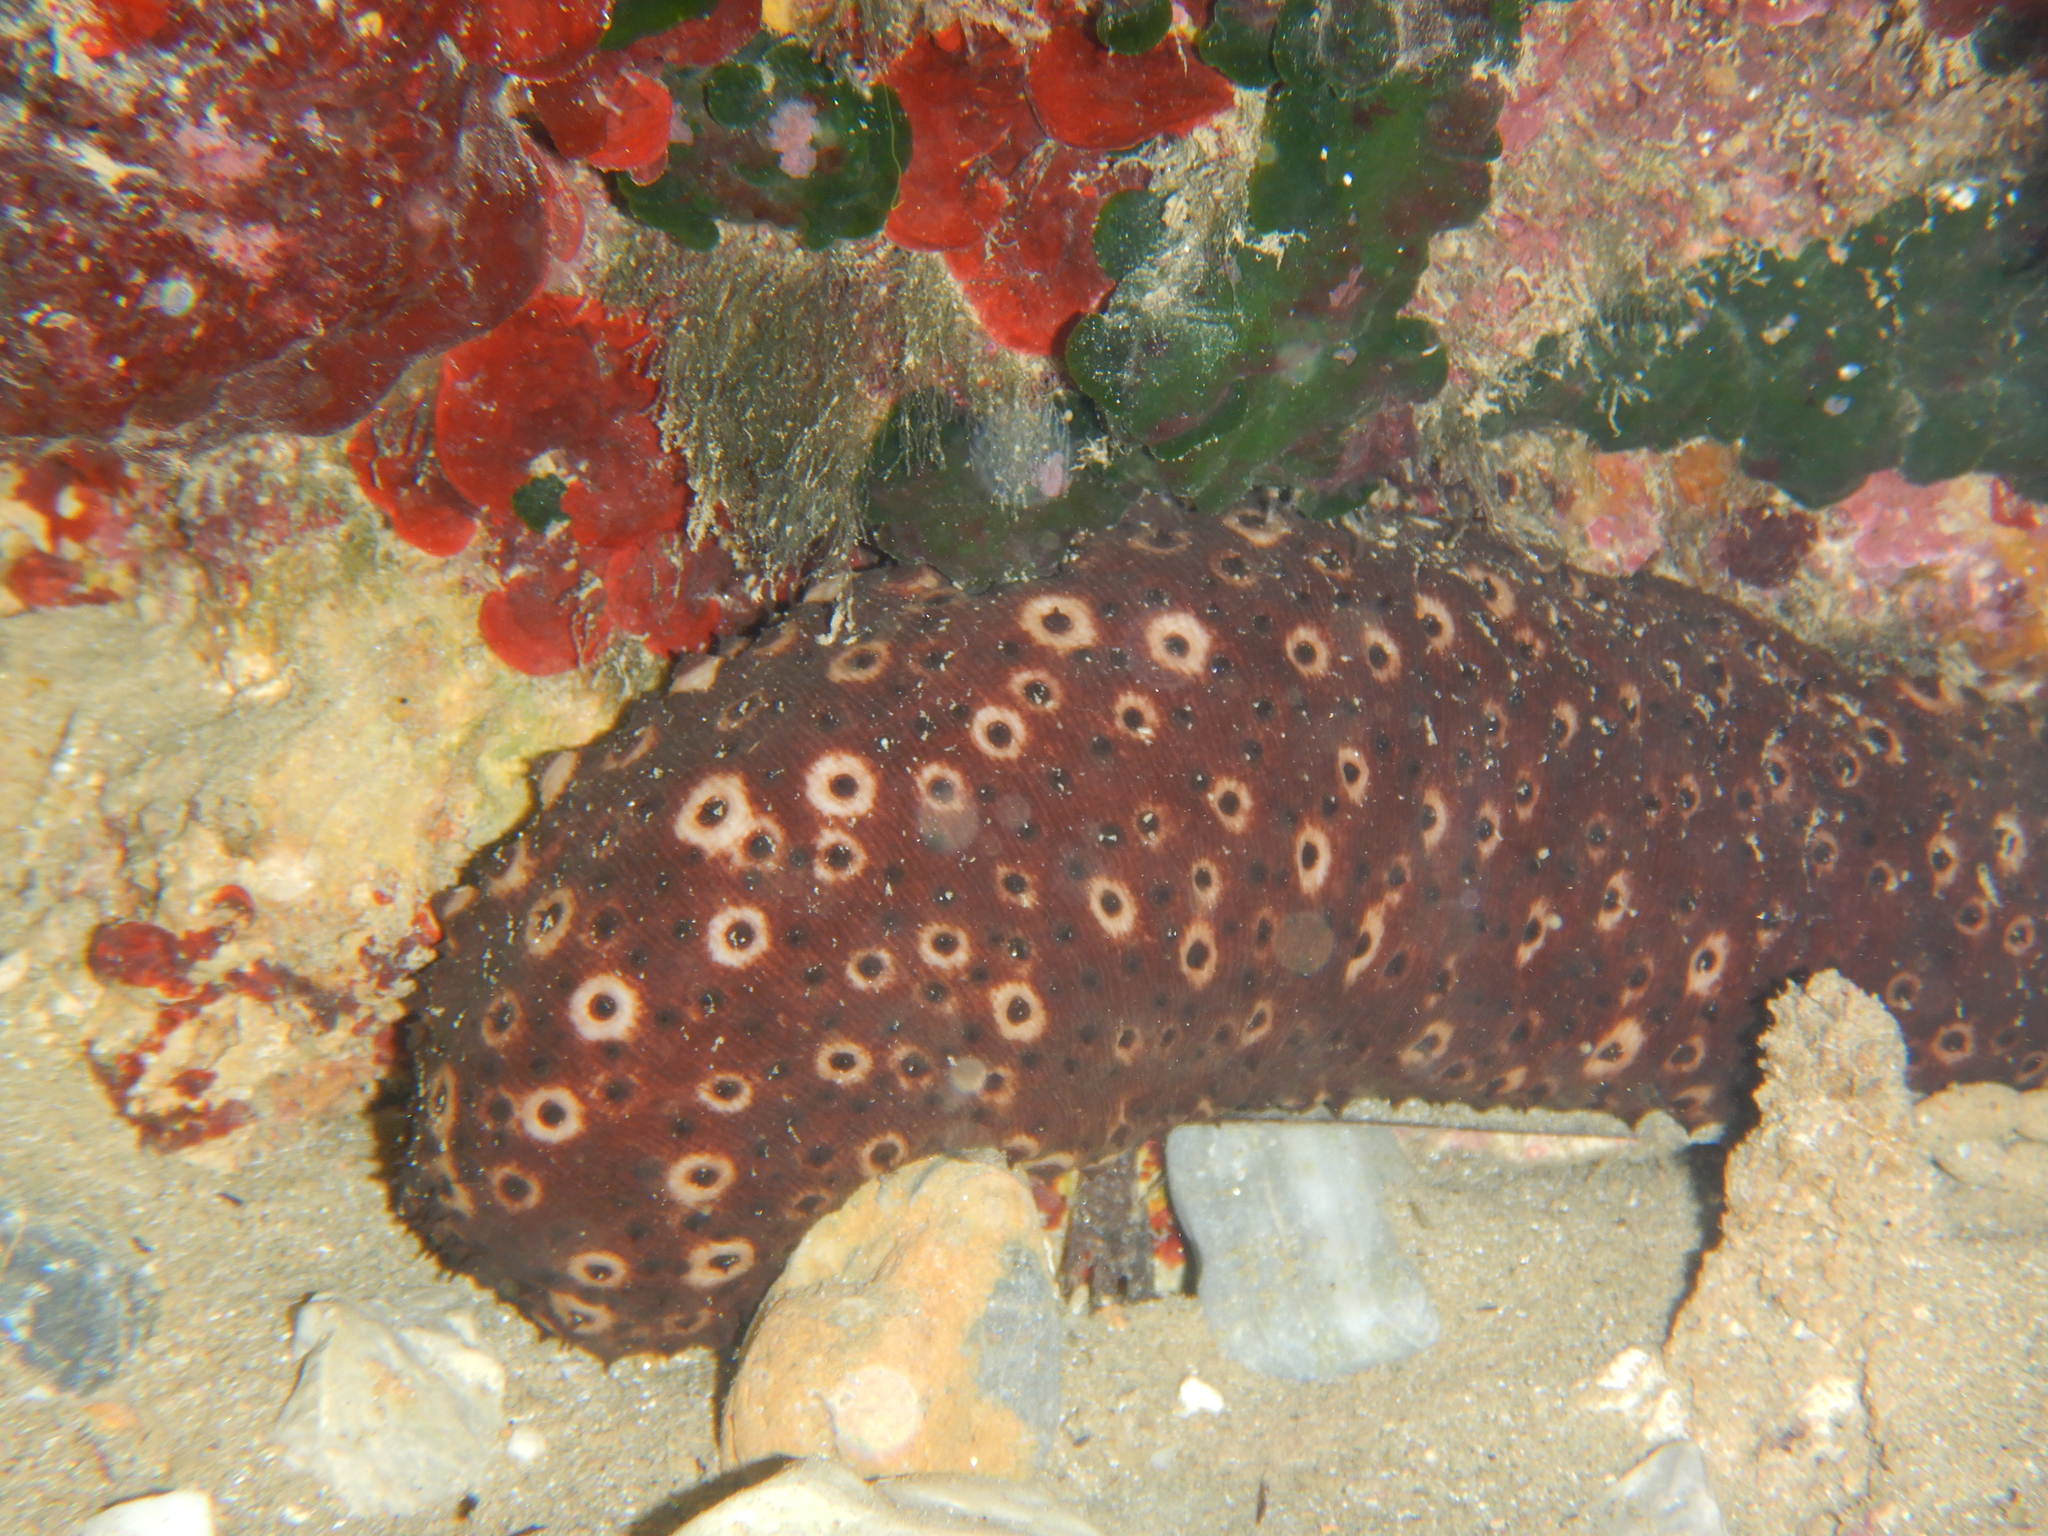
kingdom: Animalia
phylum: Echinodermata
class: Holothuroidea
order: Holothuriida
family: Holothuriidae
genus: Holothuria
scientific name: Holothuria sanctori
